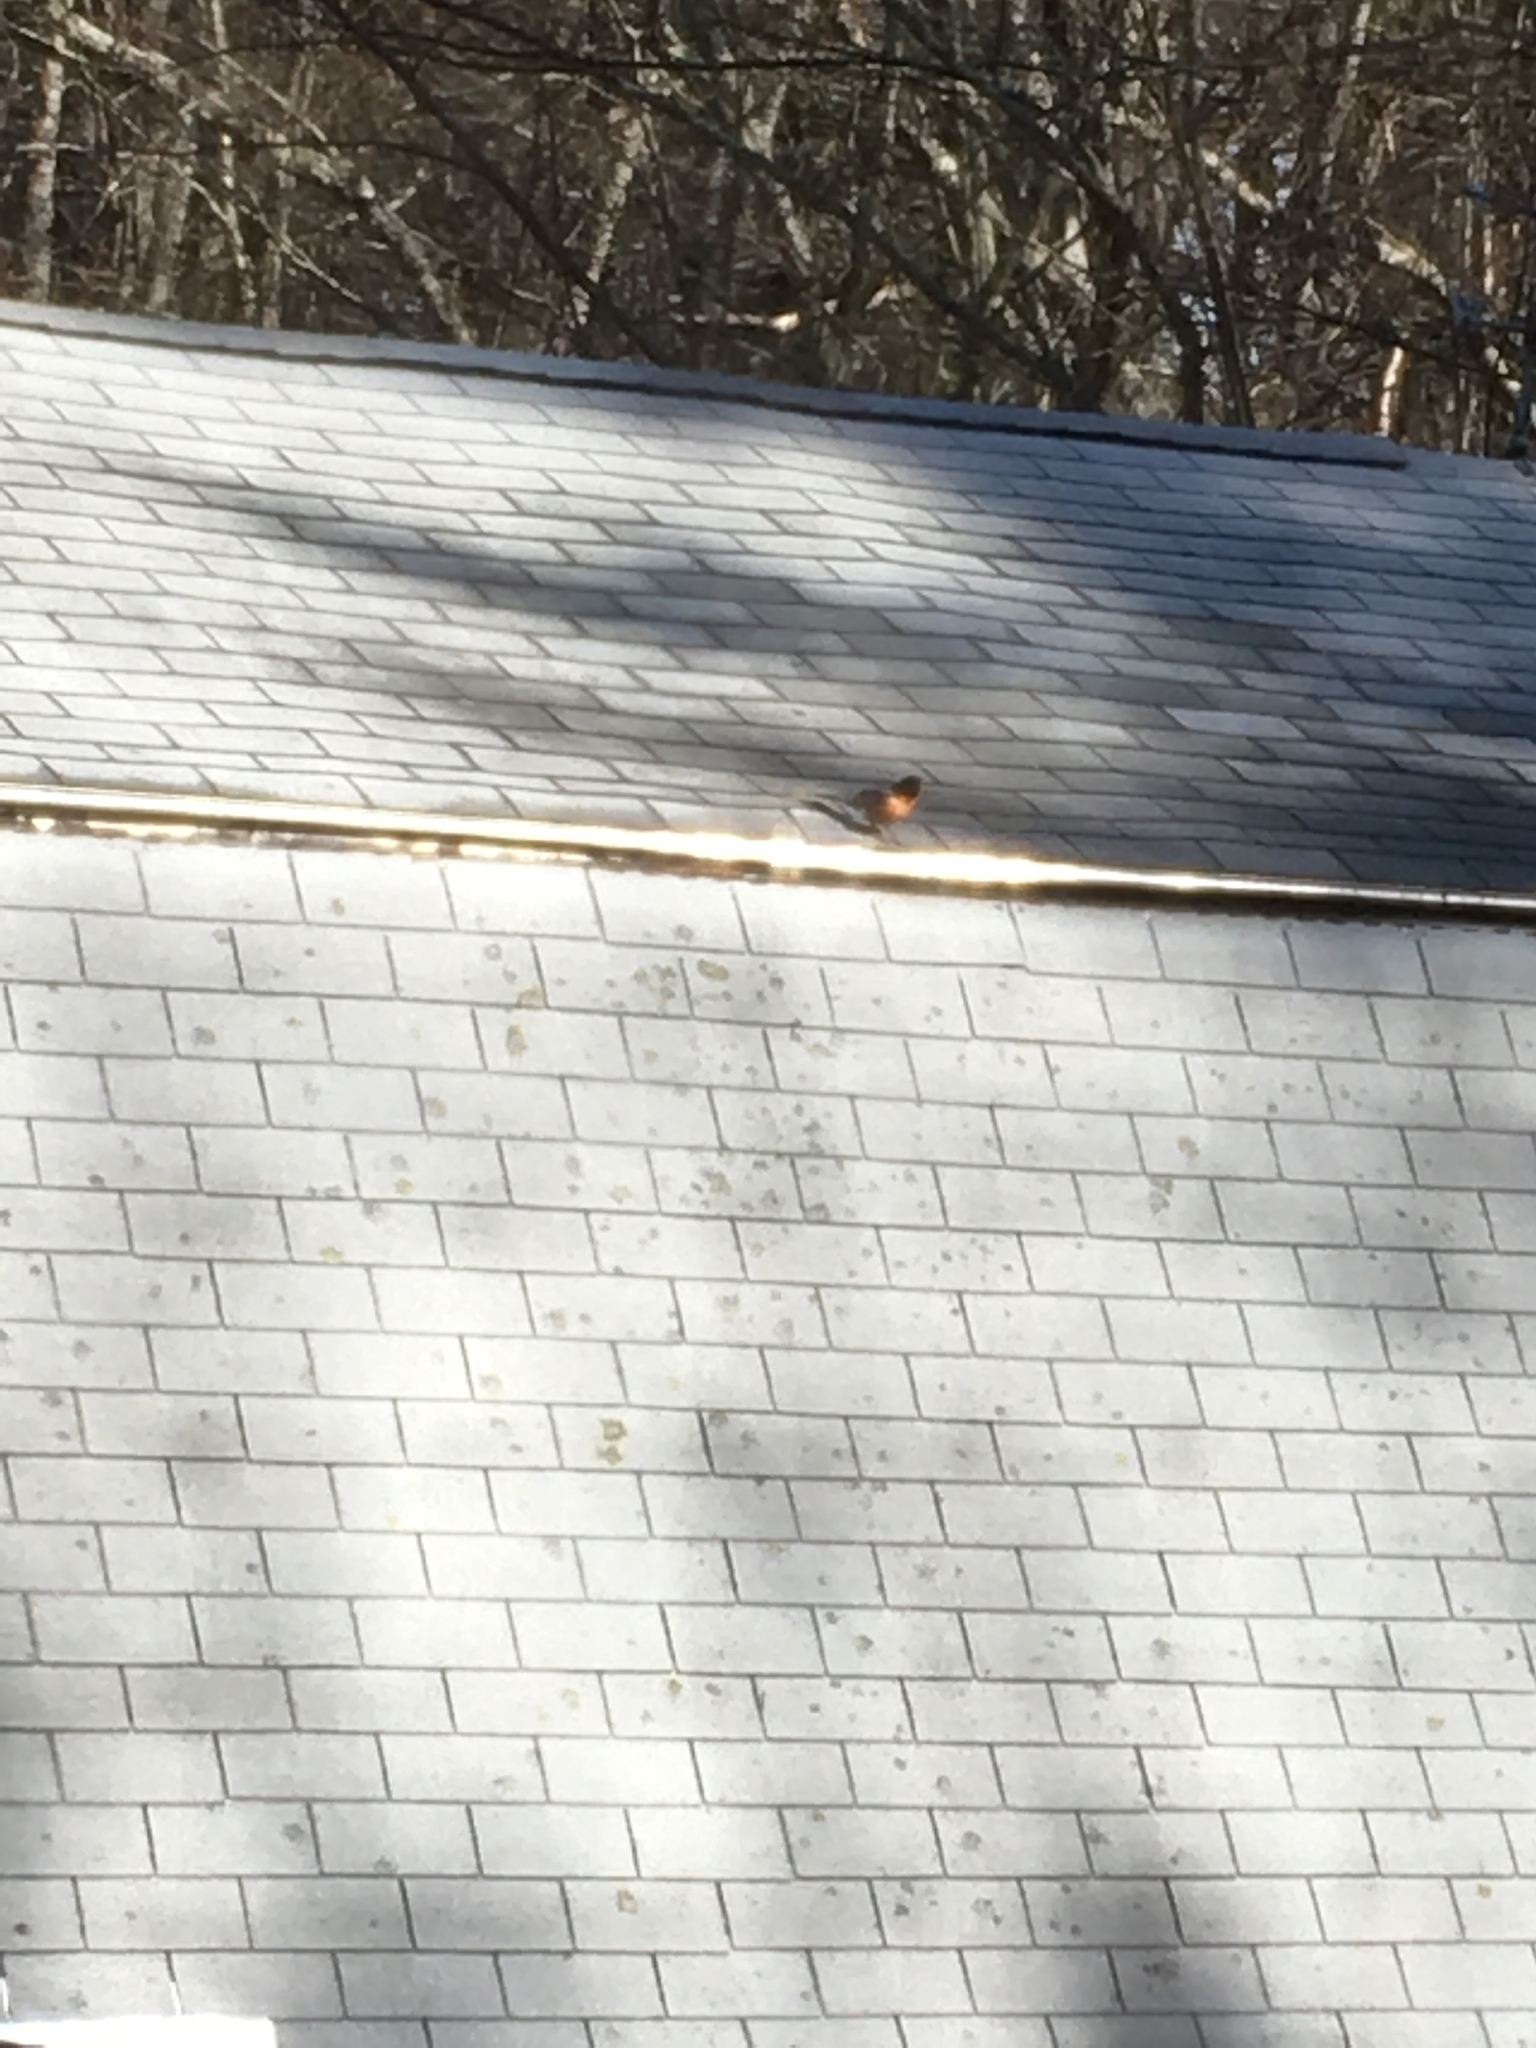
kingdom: Animalia
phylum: Chordata
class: Aves
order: Passeriformes
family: Turdidae
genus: Turdus
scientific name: Turdus migratorius
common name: American robin
